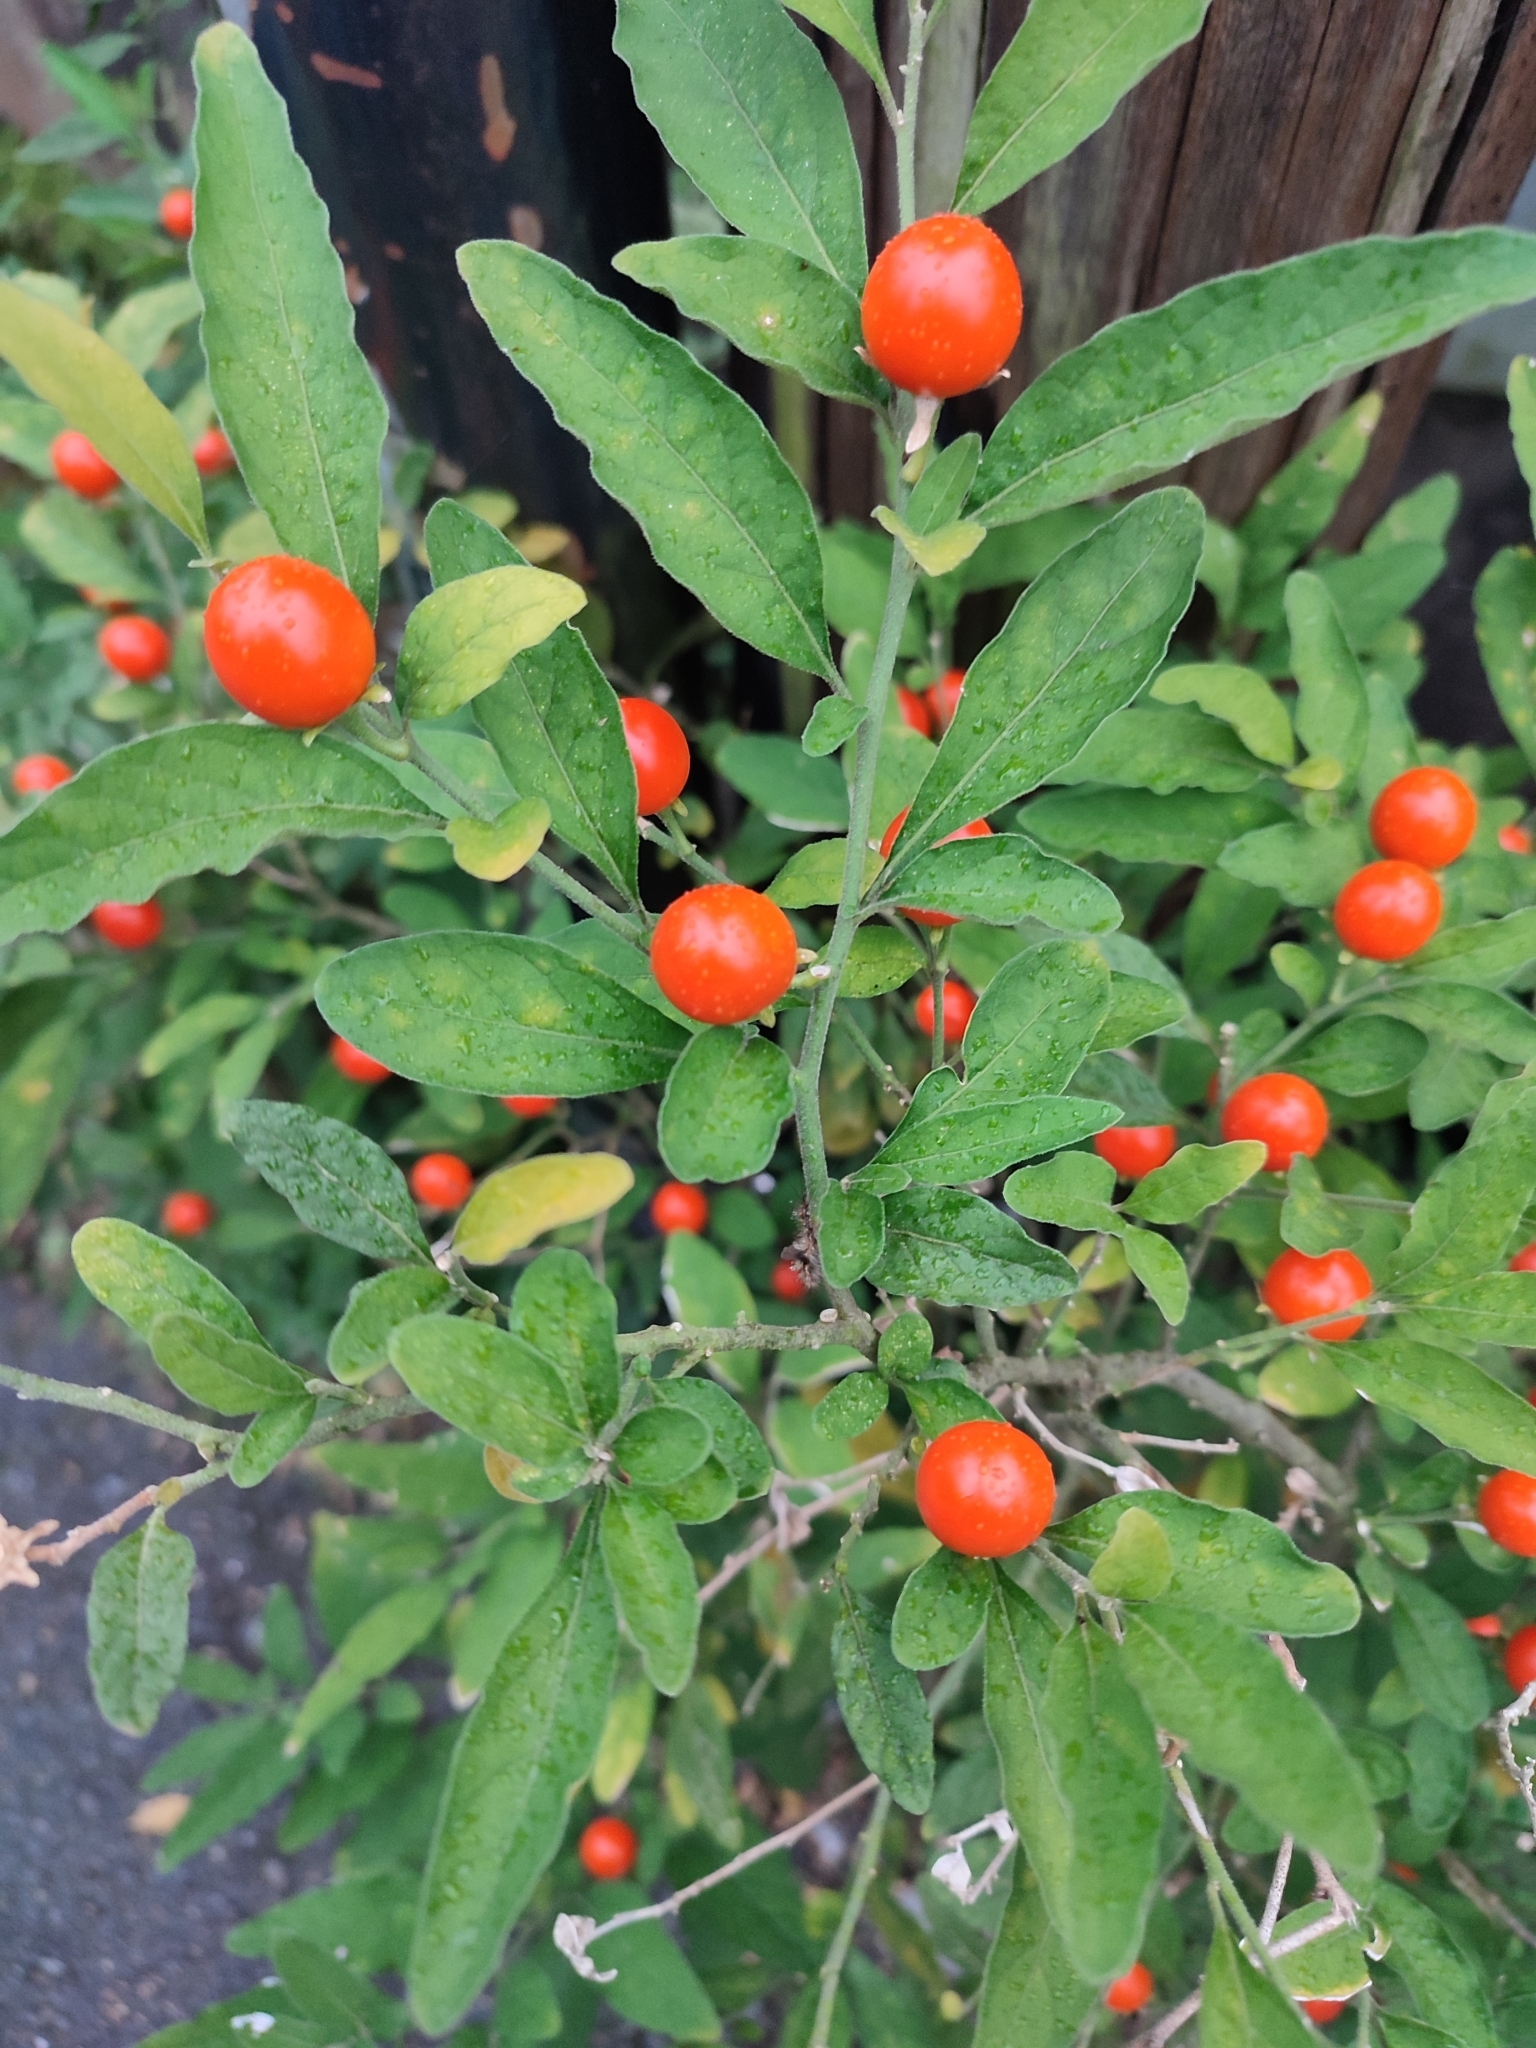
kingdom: Plantae
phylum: Tracheophyta
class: Magnoliopsida
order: Solanales
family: Solanaceae
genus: Solanum
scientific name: Solanum pseudocapsicum
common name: Jerusalem cherry
